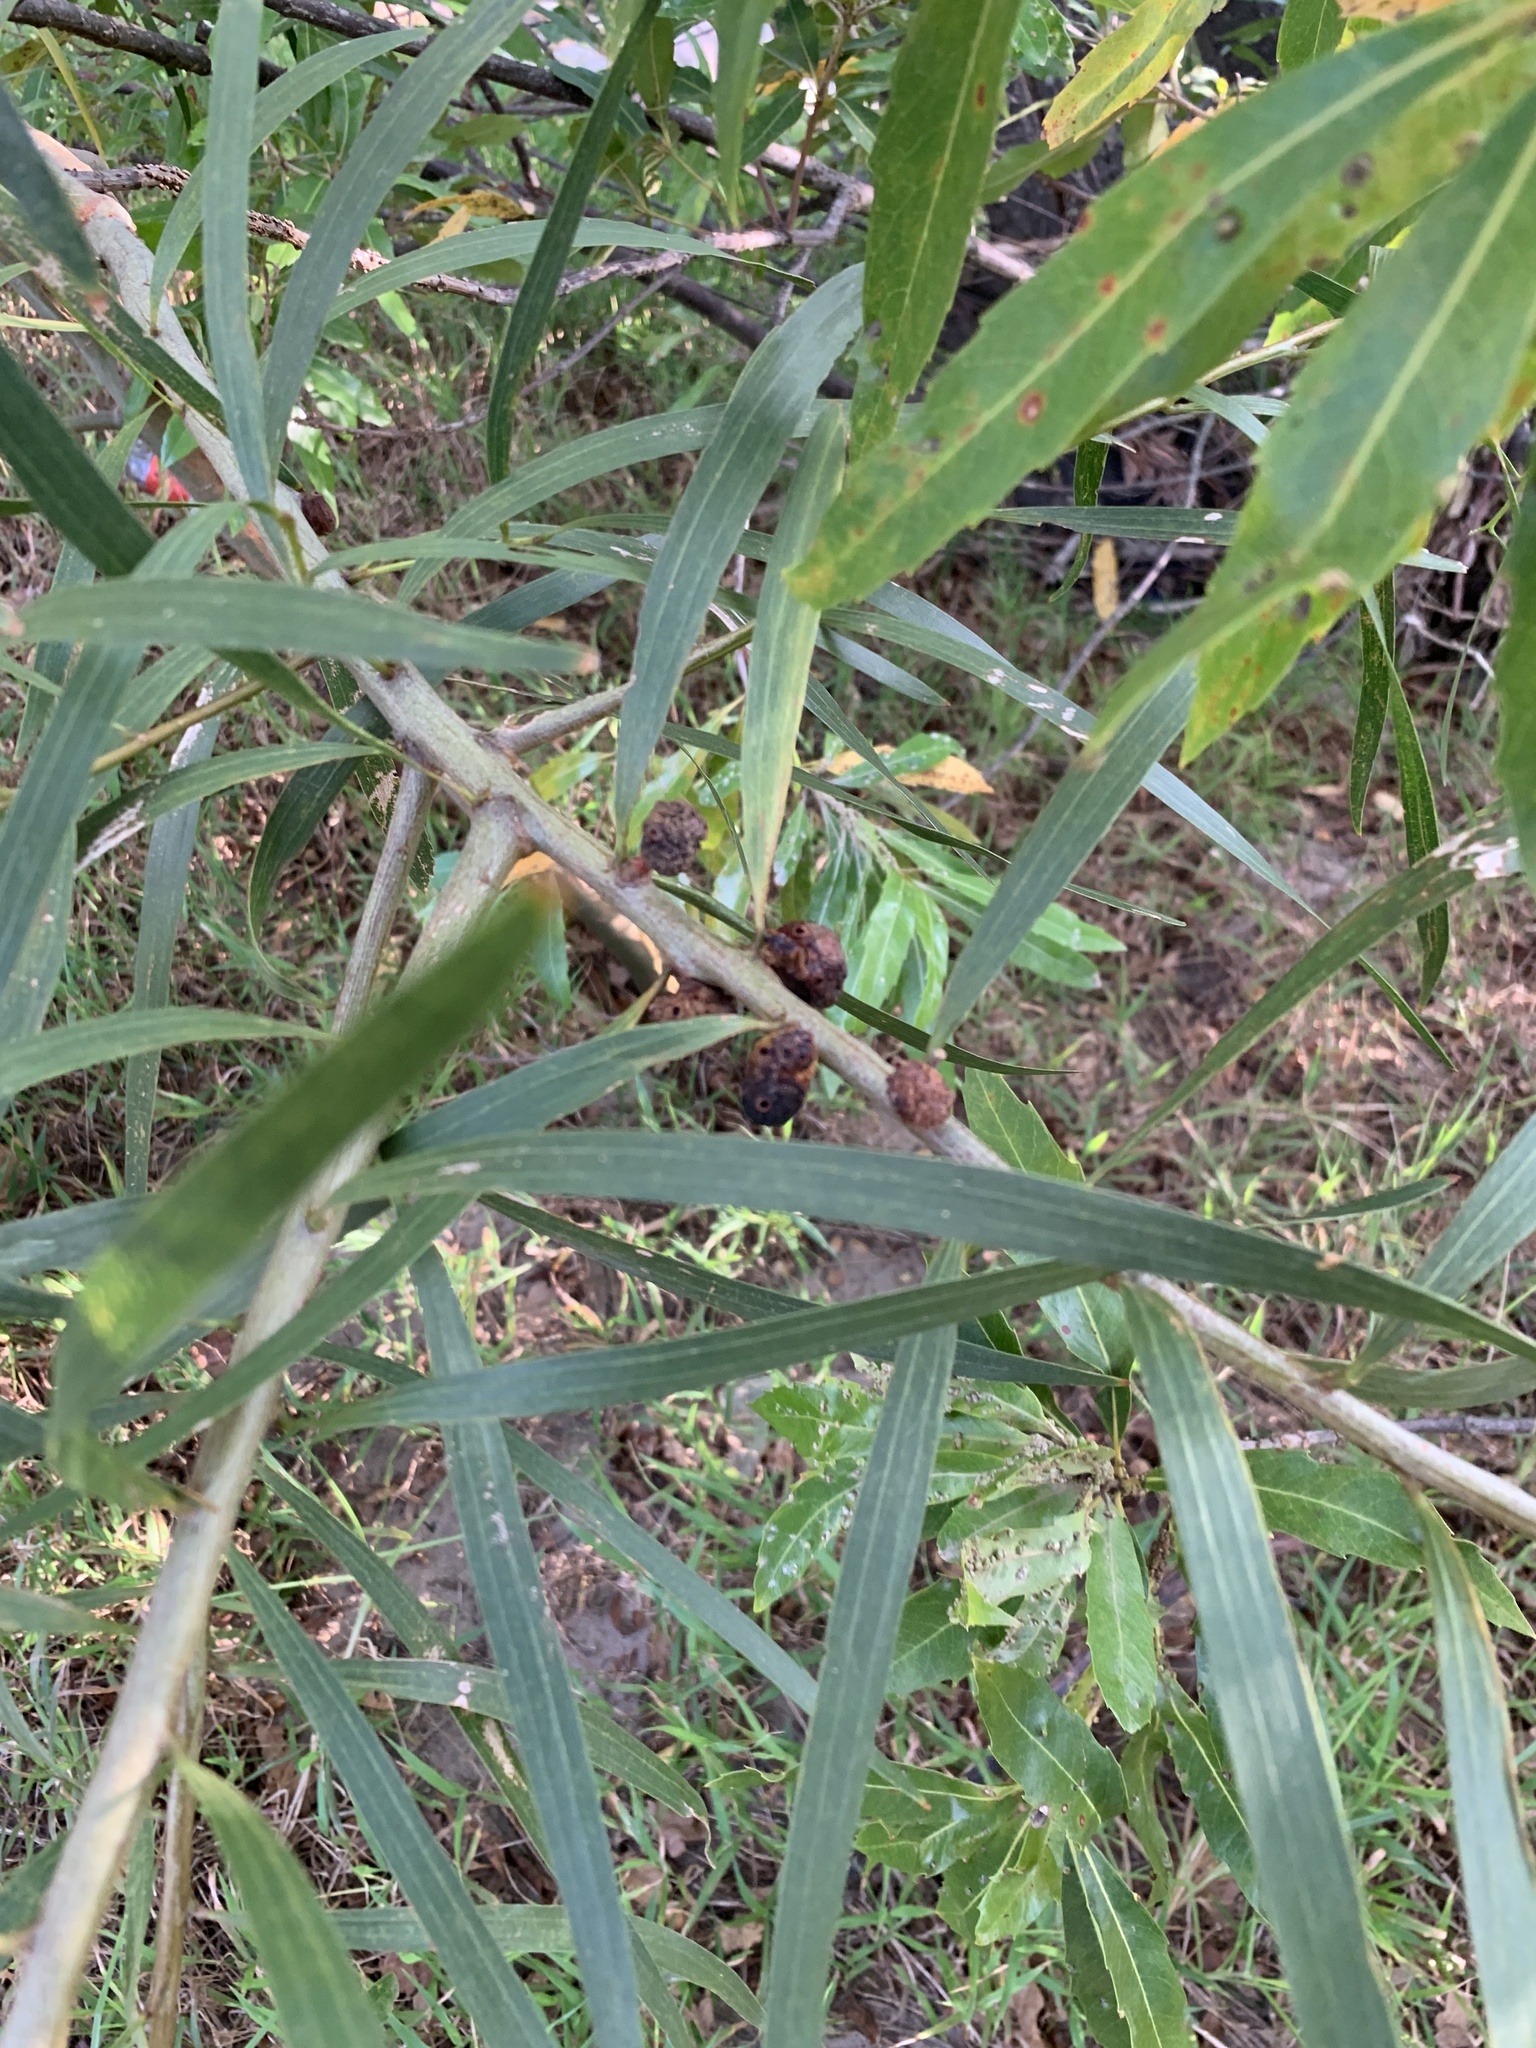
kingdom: Plantae
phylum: Tracheophyta
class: Magnoliopsida
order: Fabales
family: Fabaceae
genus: Acacia
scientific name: Acacia longifolia
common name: Sydney golden wattle
